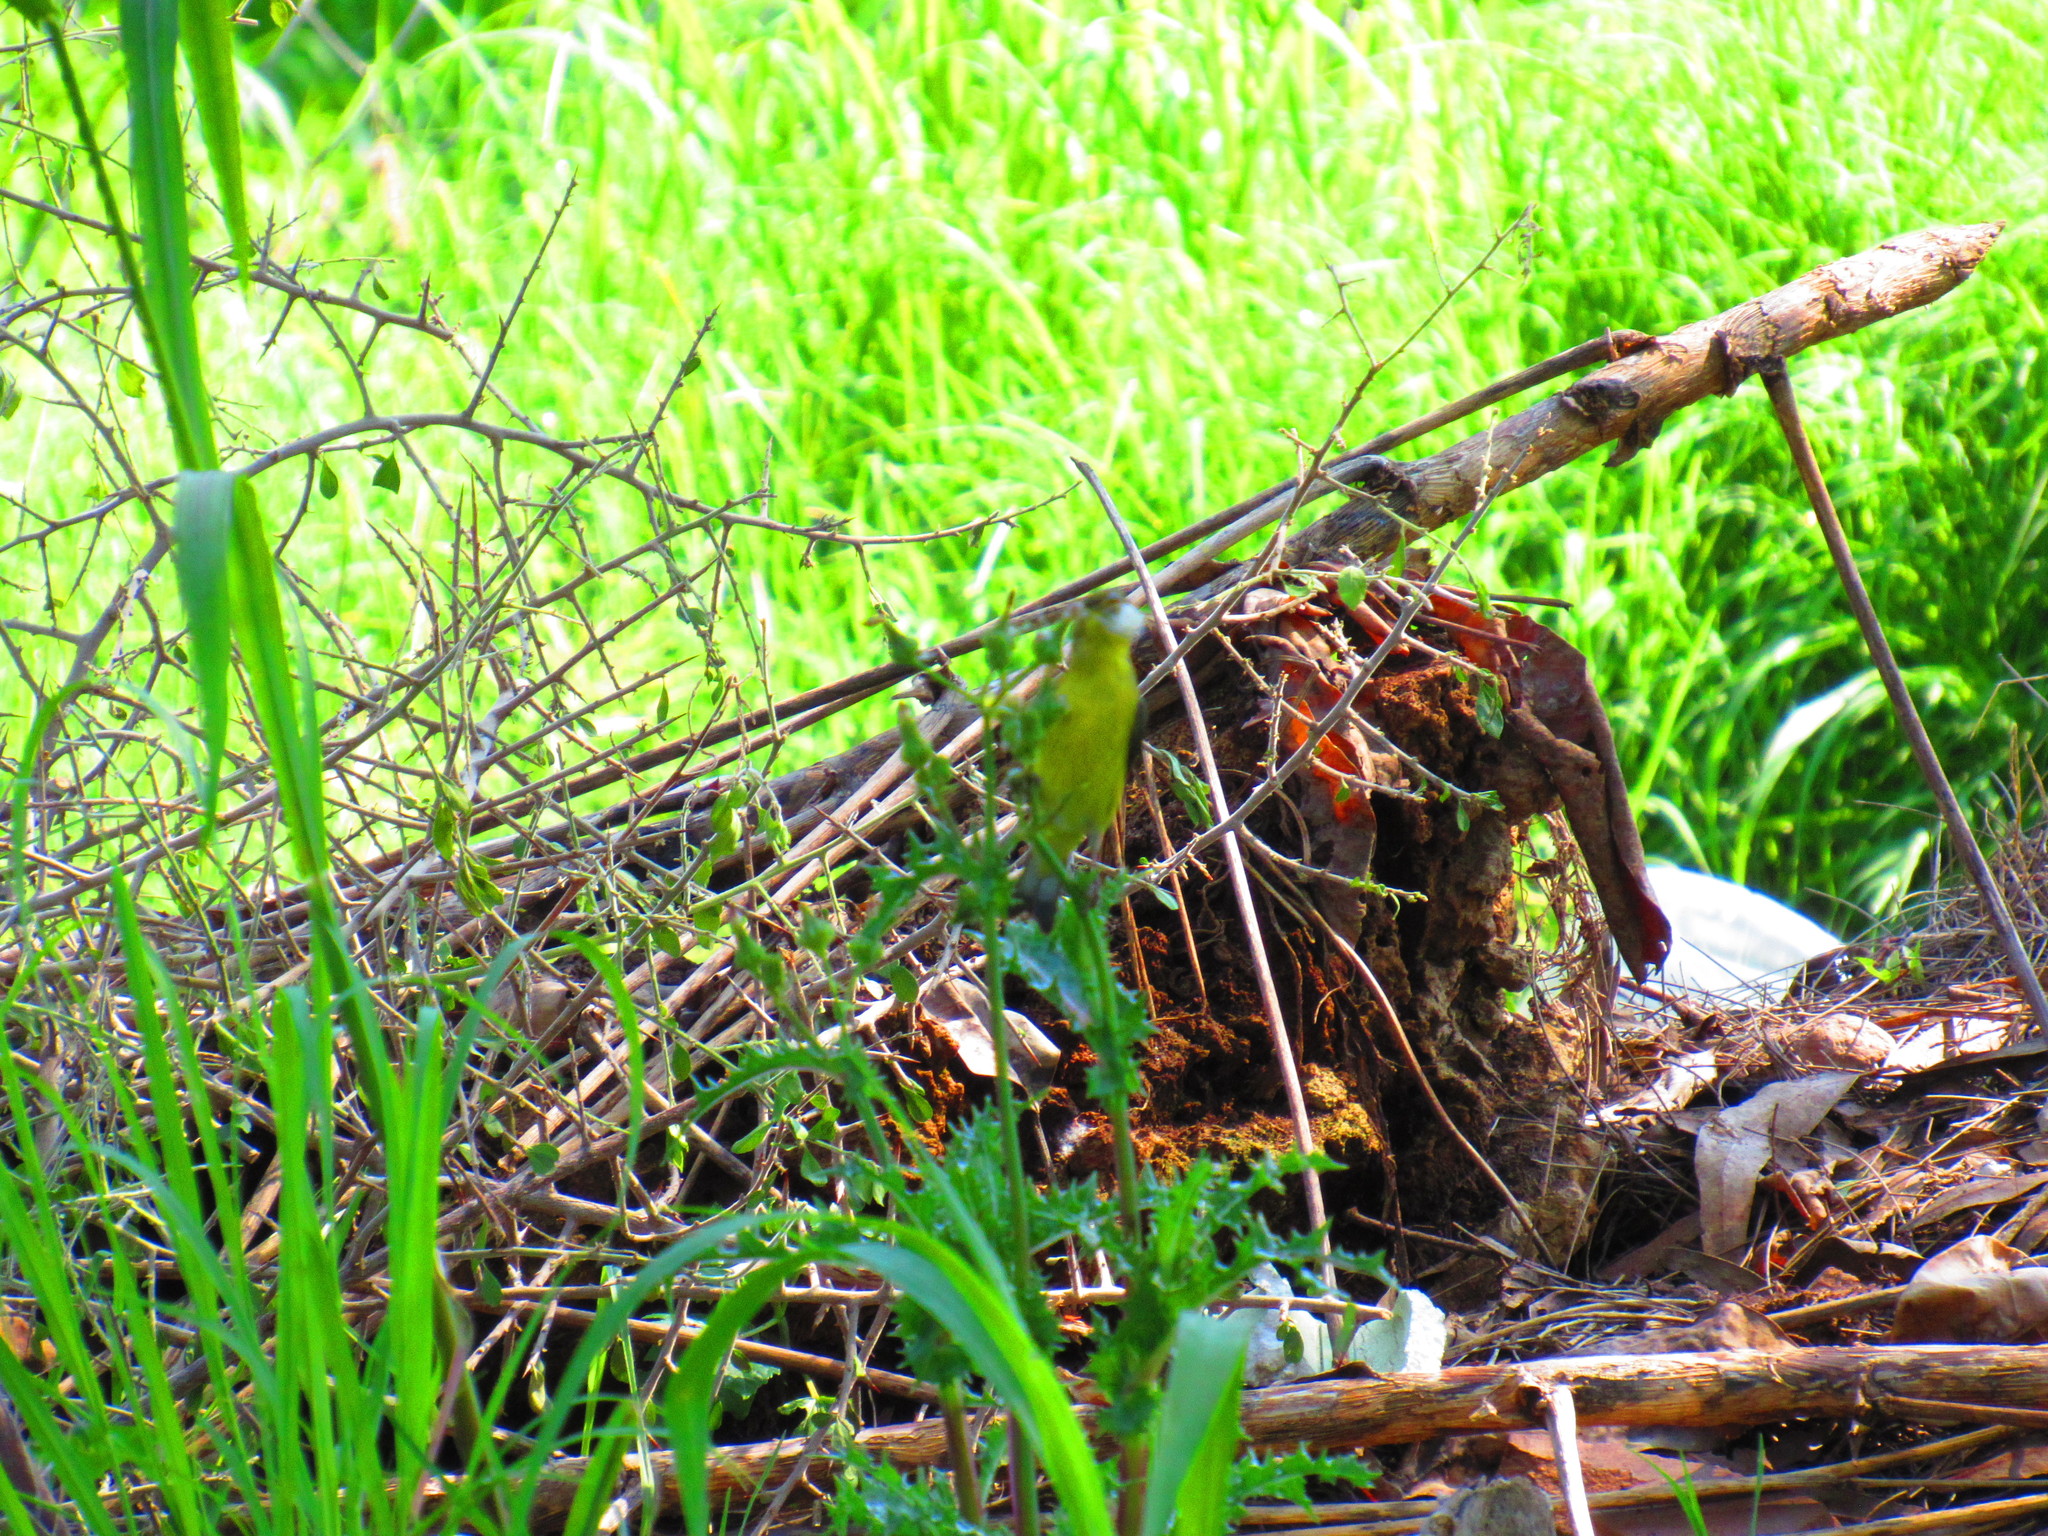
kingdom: Animalia
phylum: Chordata
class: Aves
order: Passeriformes
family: Fringillidae
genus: Spinus
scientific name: Spinus psaltria
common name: Lesser goldfinch
